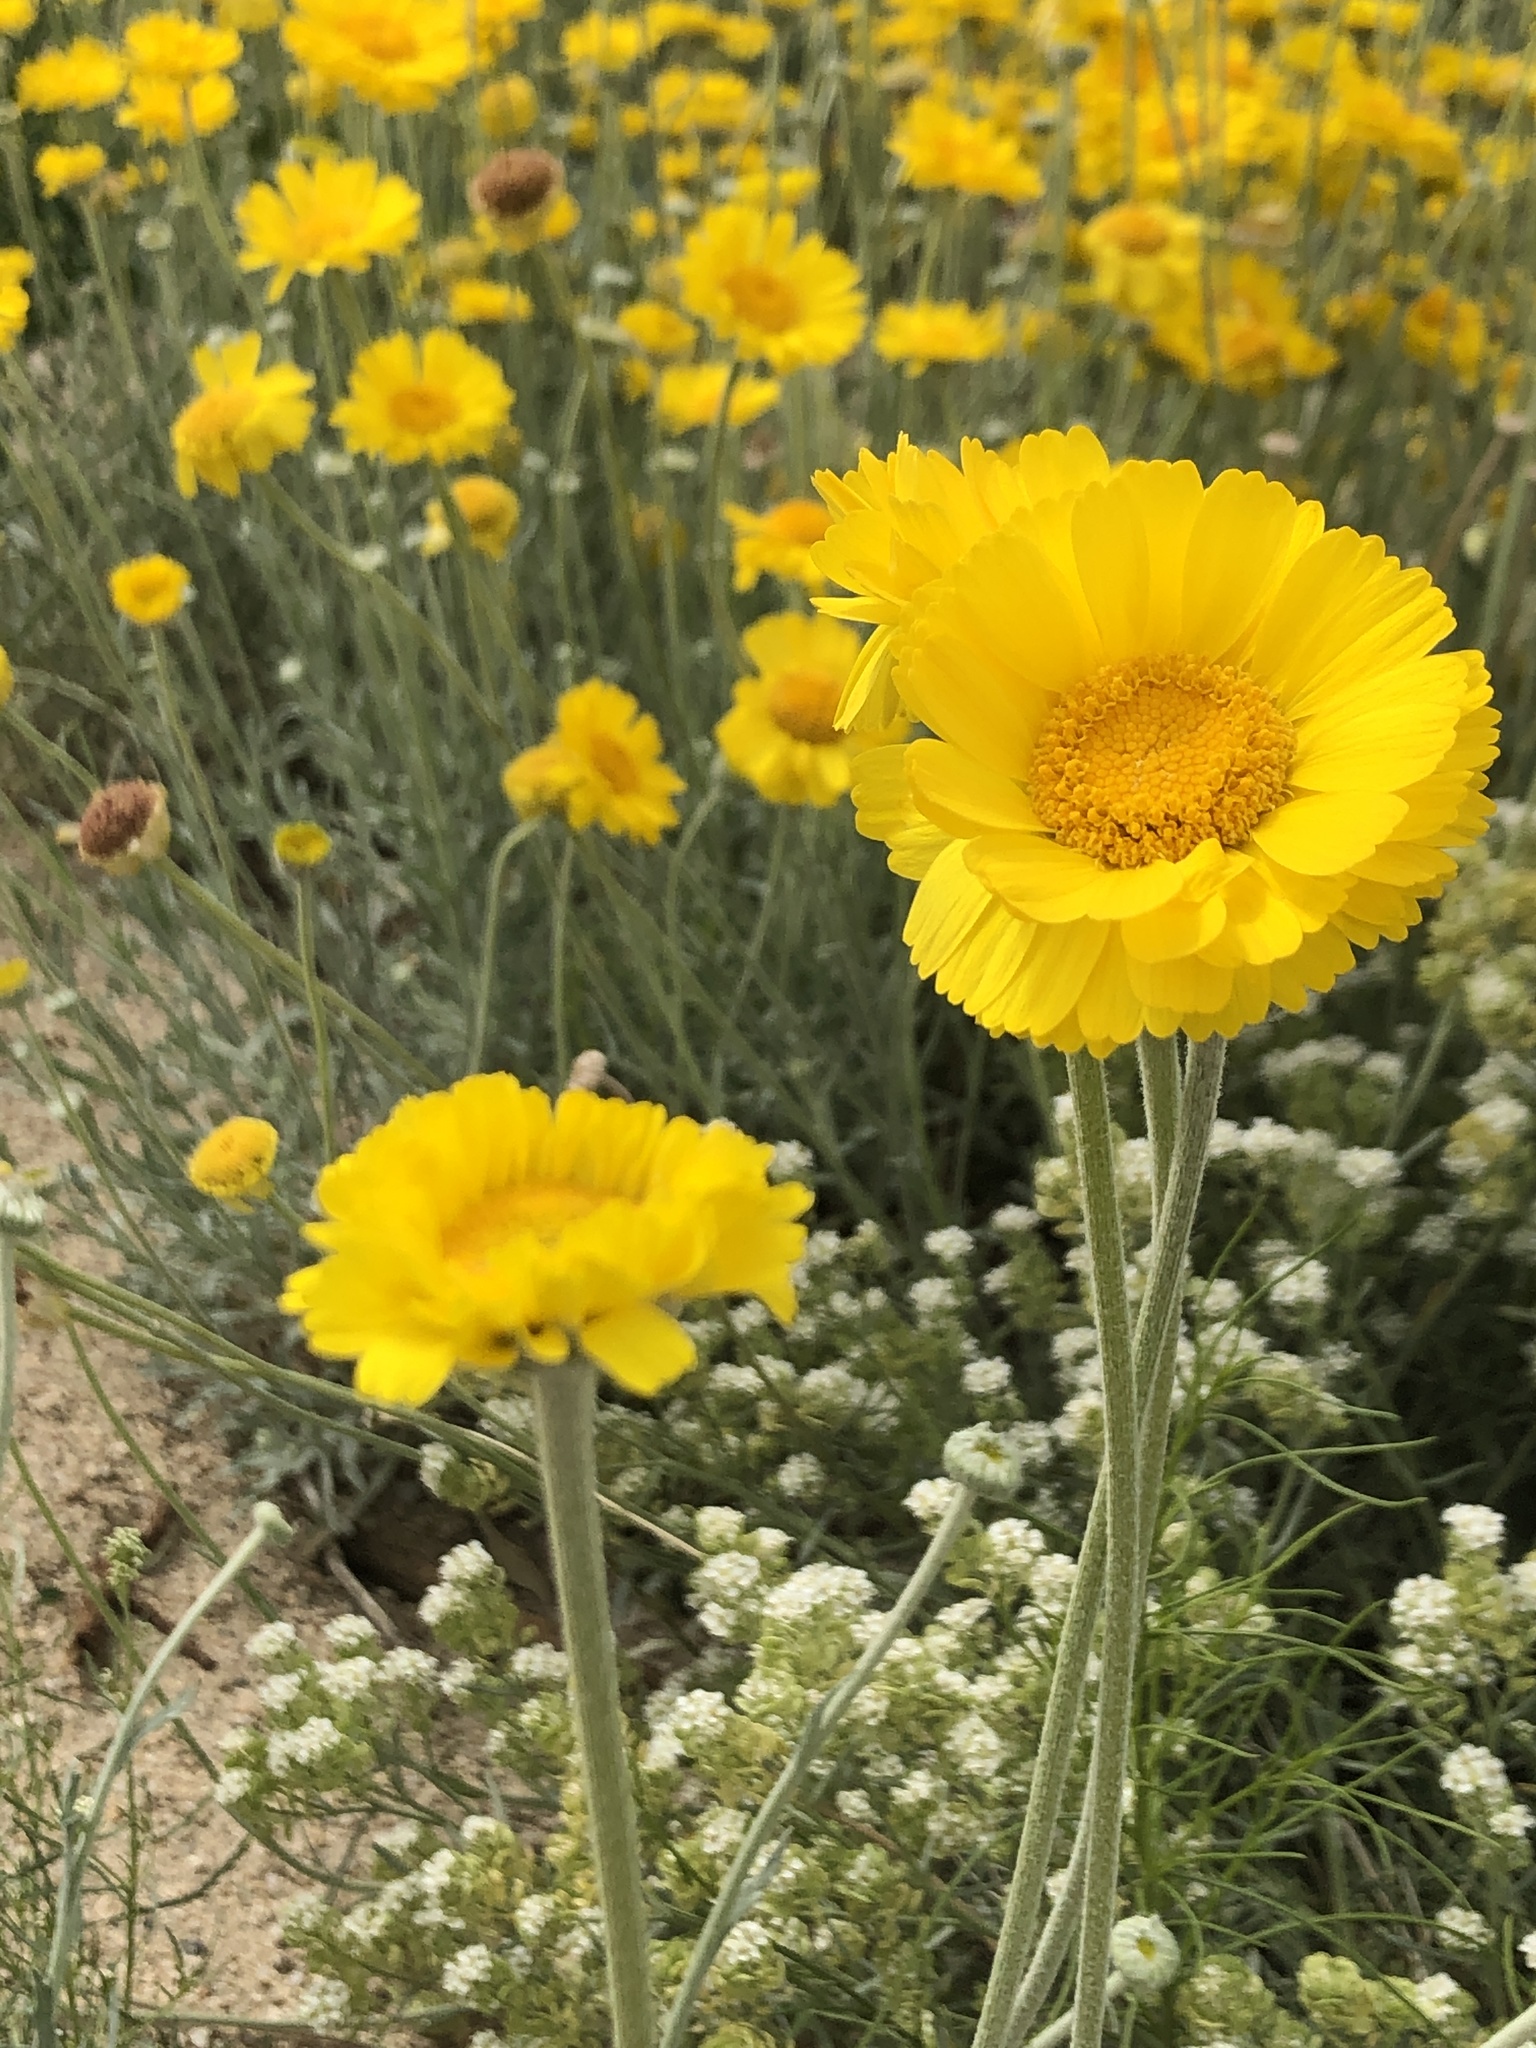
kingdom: Plantae
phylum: Tracheophyta
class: Magnoliopsida
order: Asterales
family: Asteraceae
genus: Baileya
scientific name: Baileya multiradiata
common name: Desert-marigold
